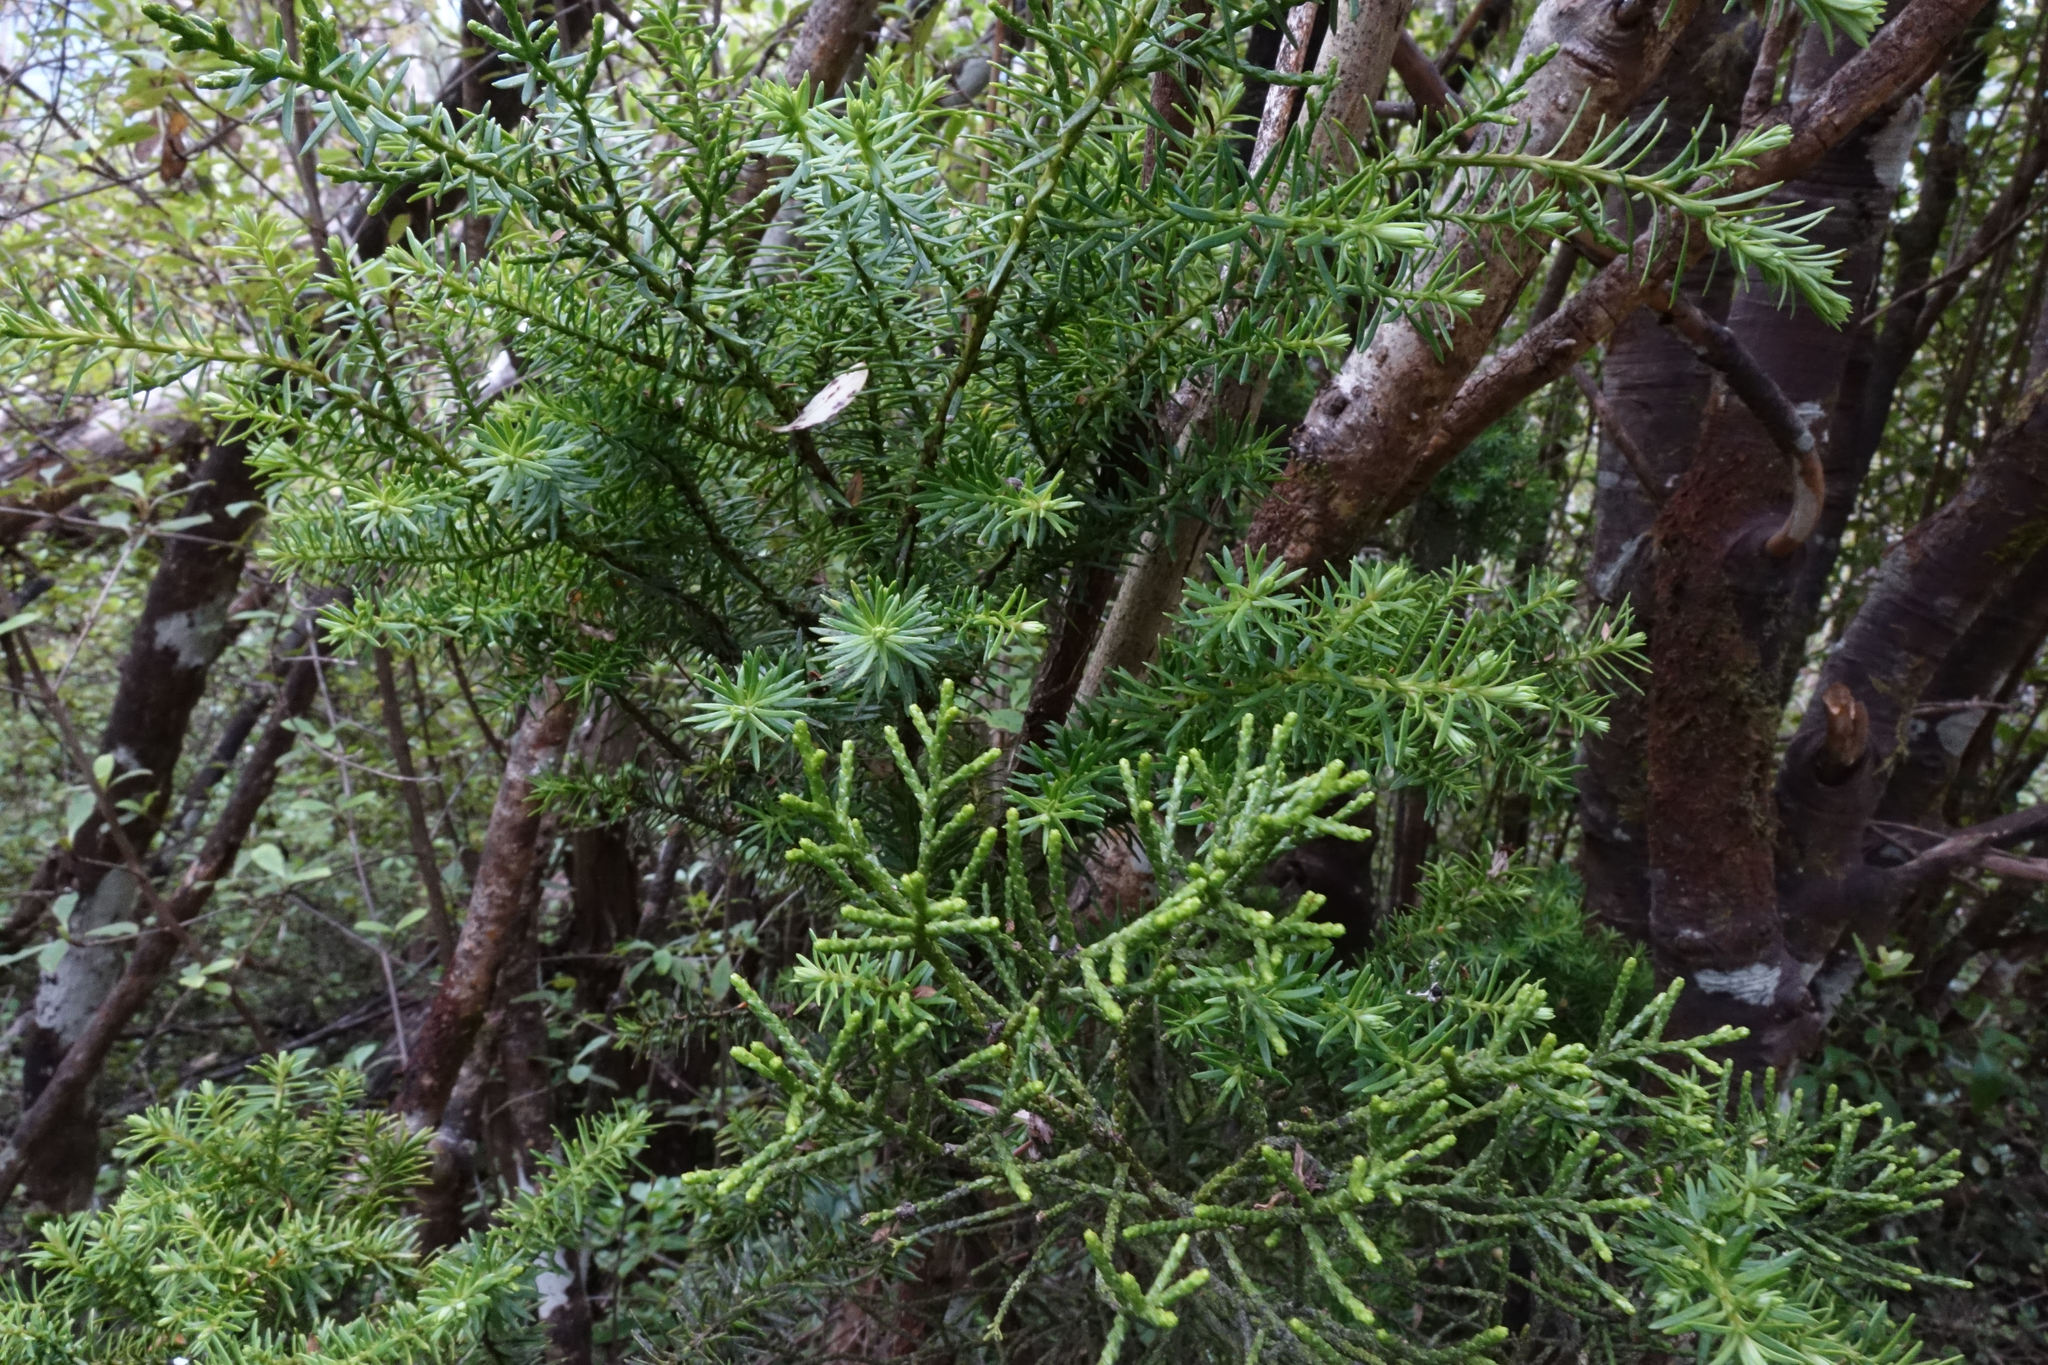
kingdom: Plantae
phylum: Tracheophyta
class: Pinopsida
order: Pinales
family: Podocarpaceae
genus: Halocarpus
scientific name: Halocarpus biformis
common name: Alpine tarwood
